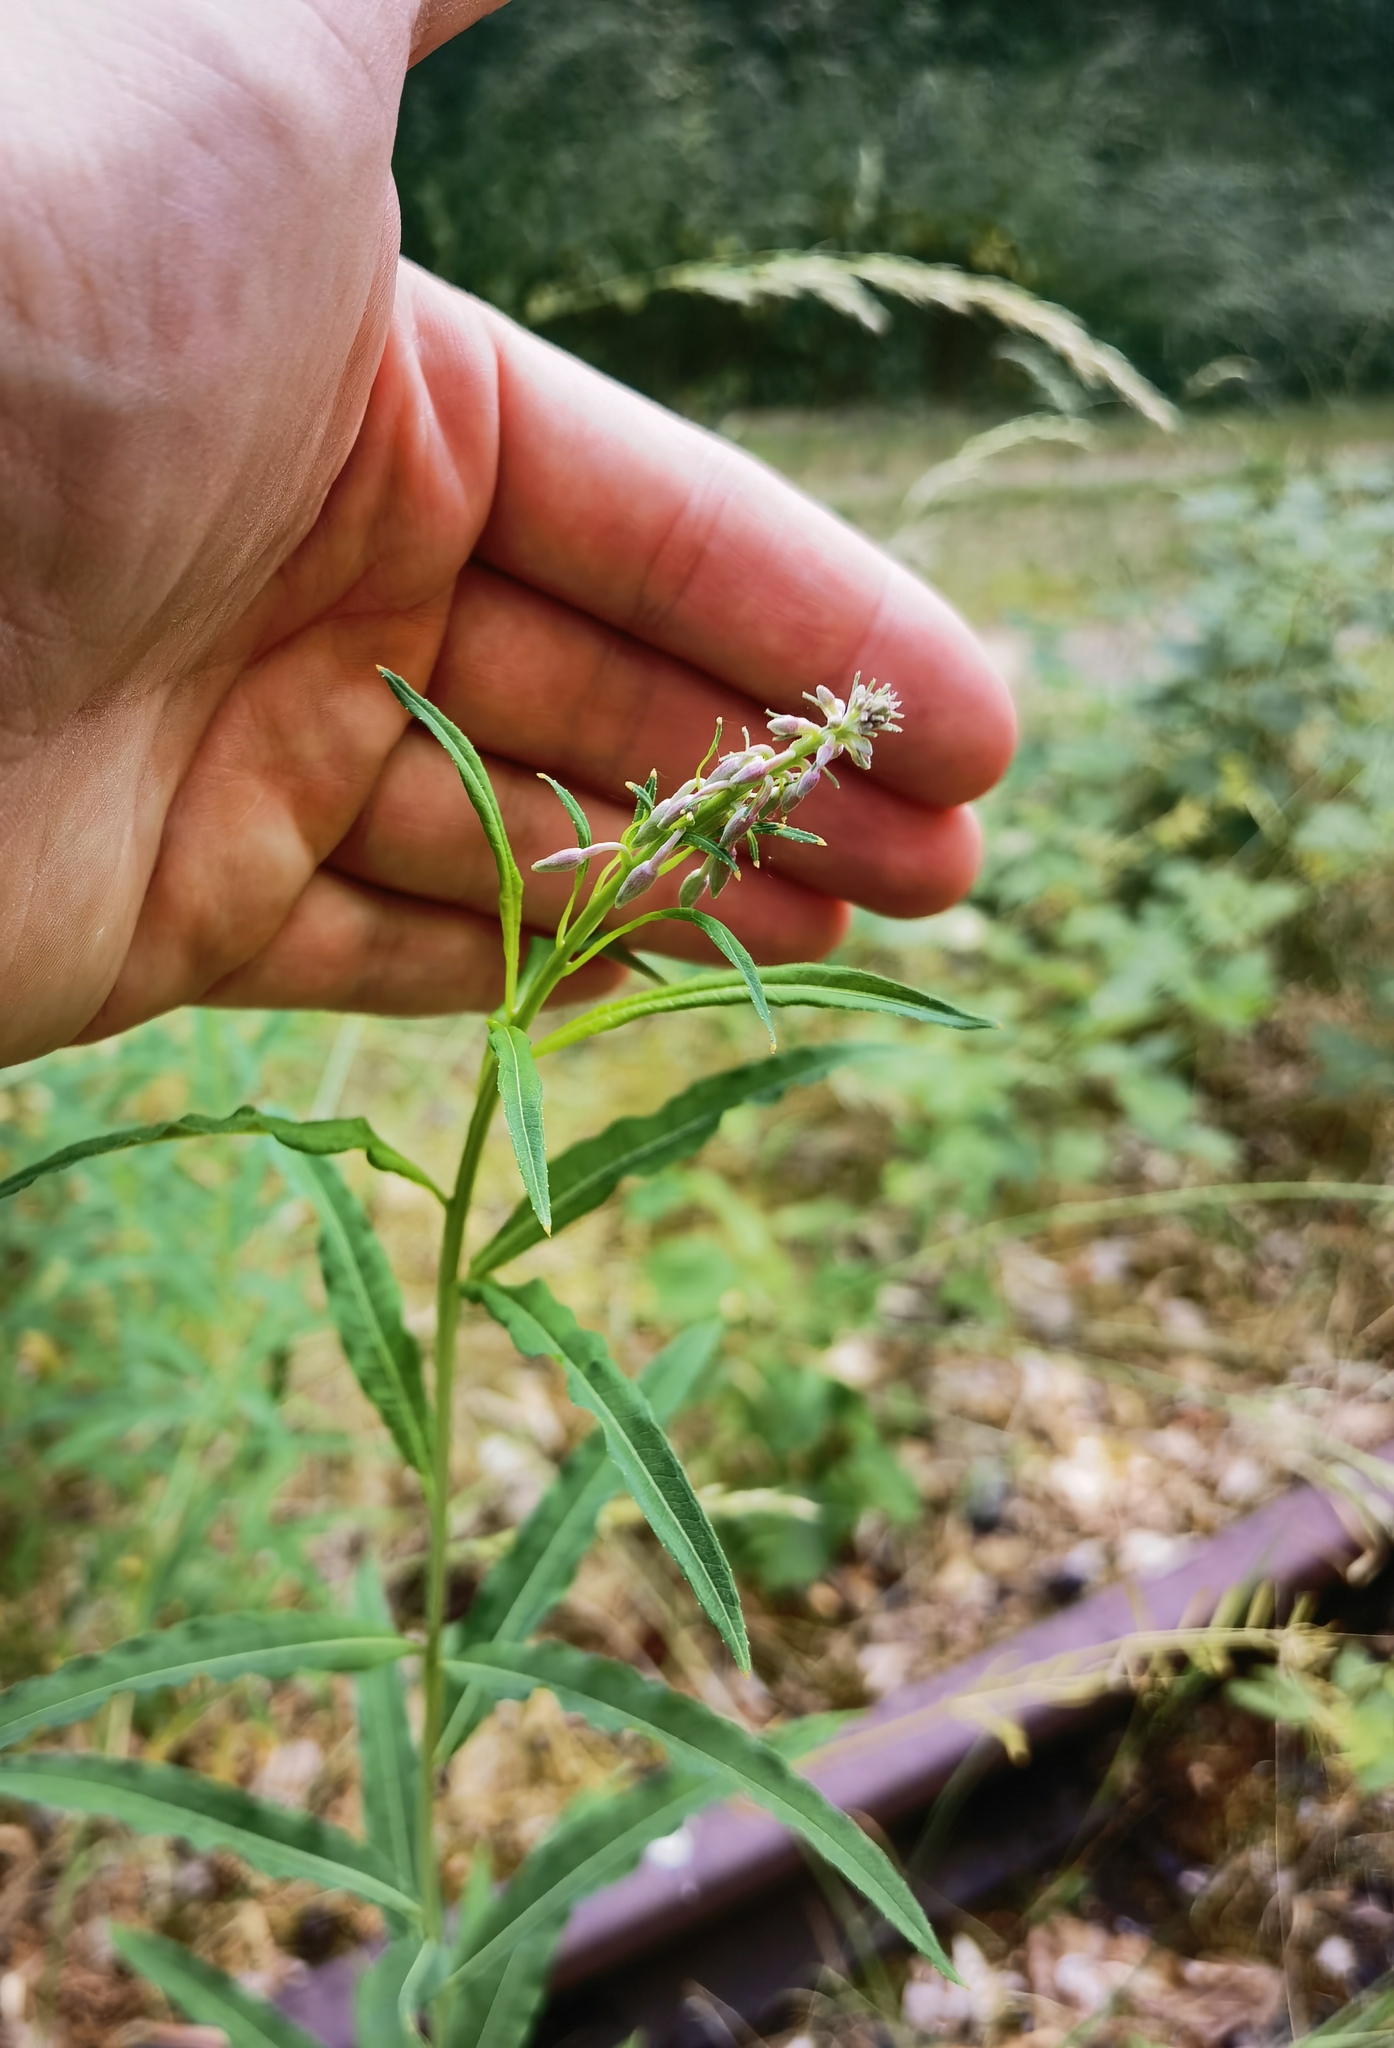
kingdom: Plantae
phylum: Tracheophyta
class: Magnoliopsida
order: Myrtales
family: Onagraceae
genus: Chamaenerion
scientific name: Chamaenerion angustifolium
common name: Fireweed
